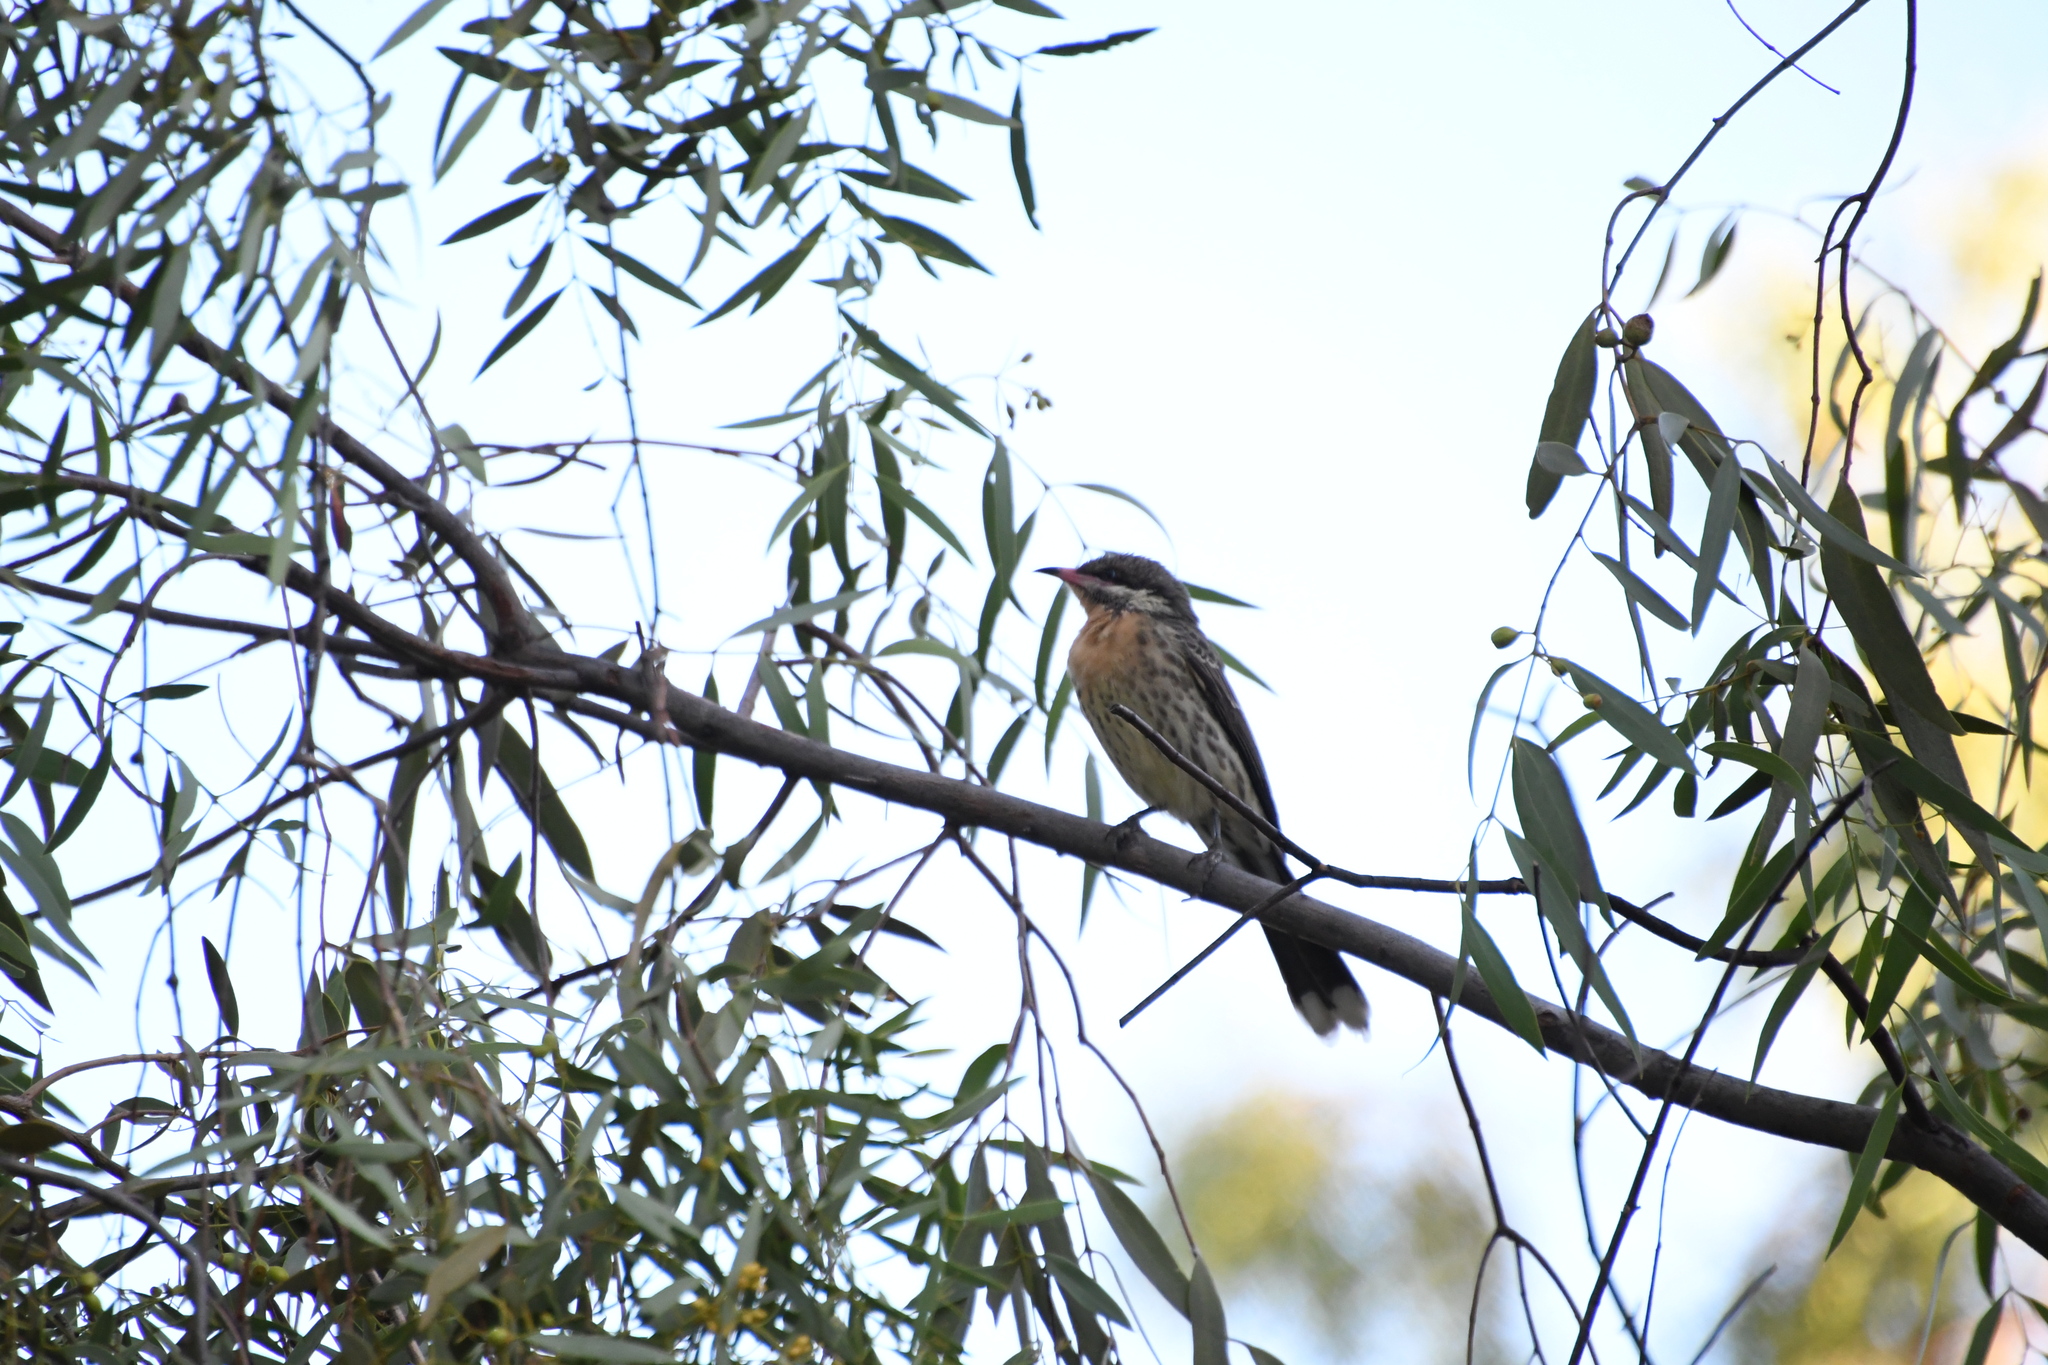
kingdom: Animalia
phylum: Chordata
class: Aves
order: Passeriformes
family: Meliphagidae
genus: Acanthagenys
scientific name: Acanthagenys rufogularis
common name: Spiny-cheeked honeyeater
